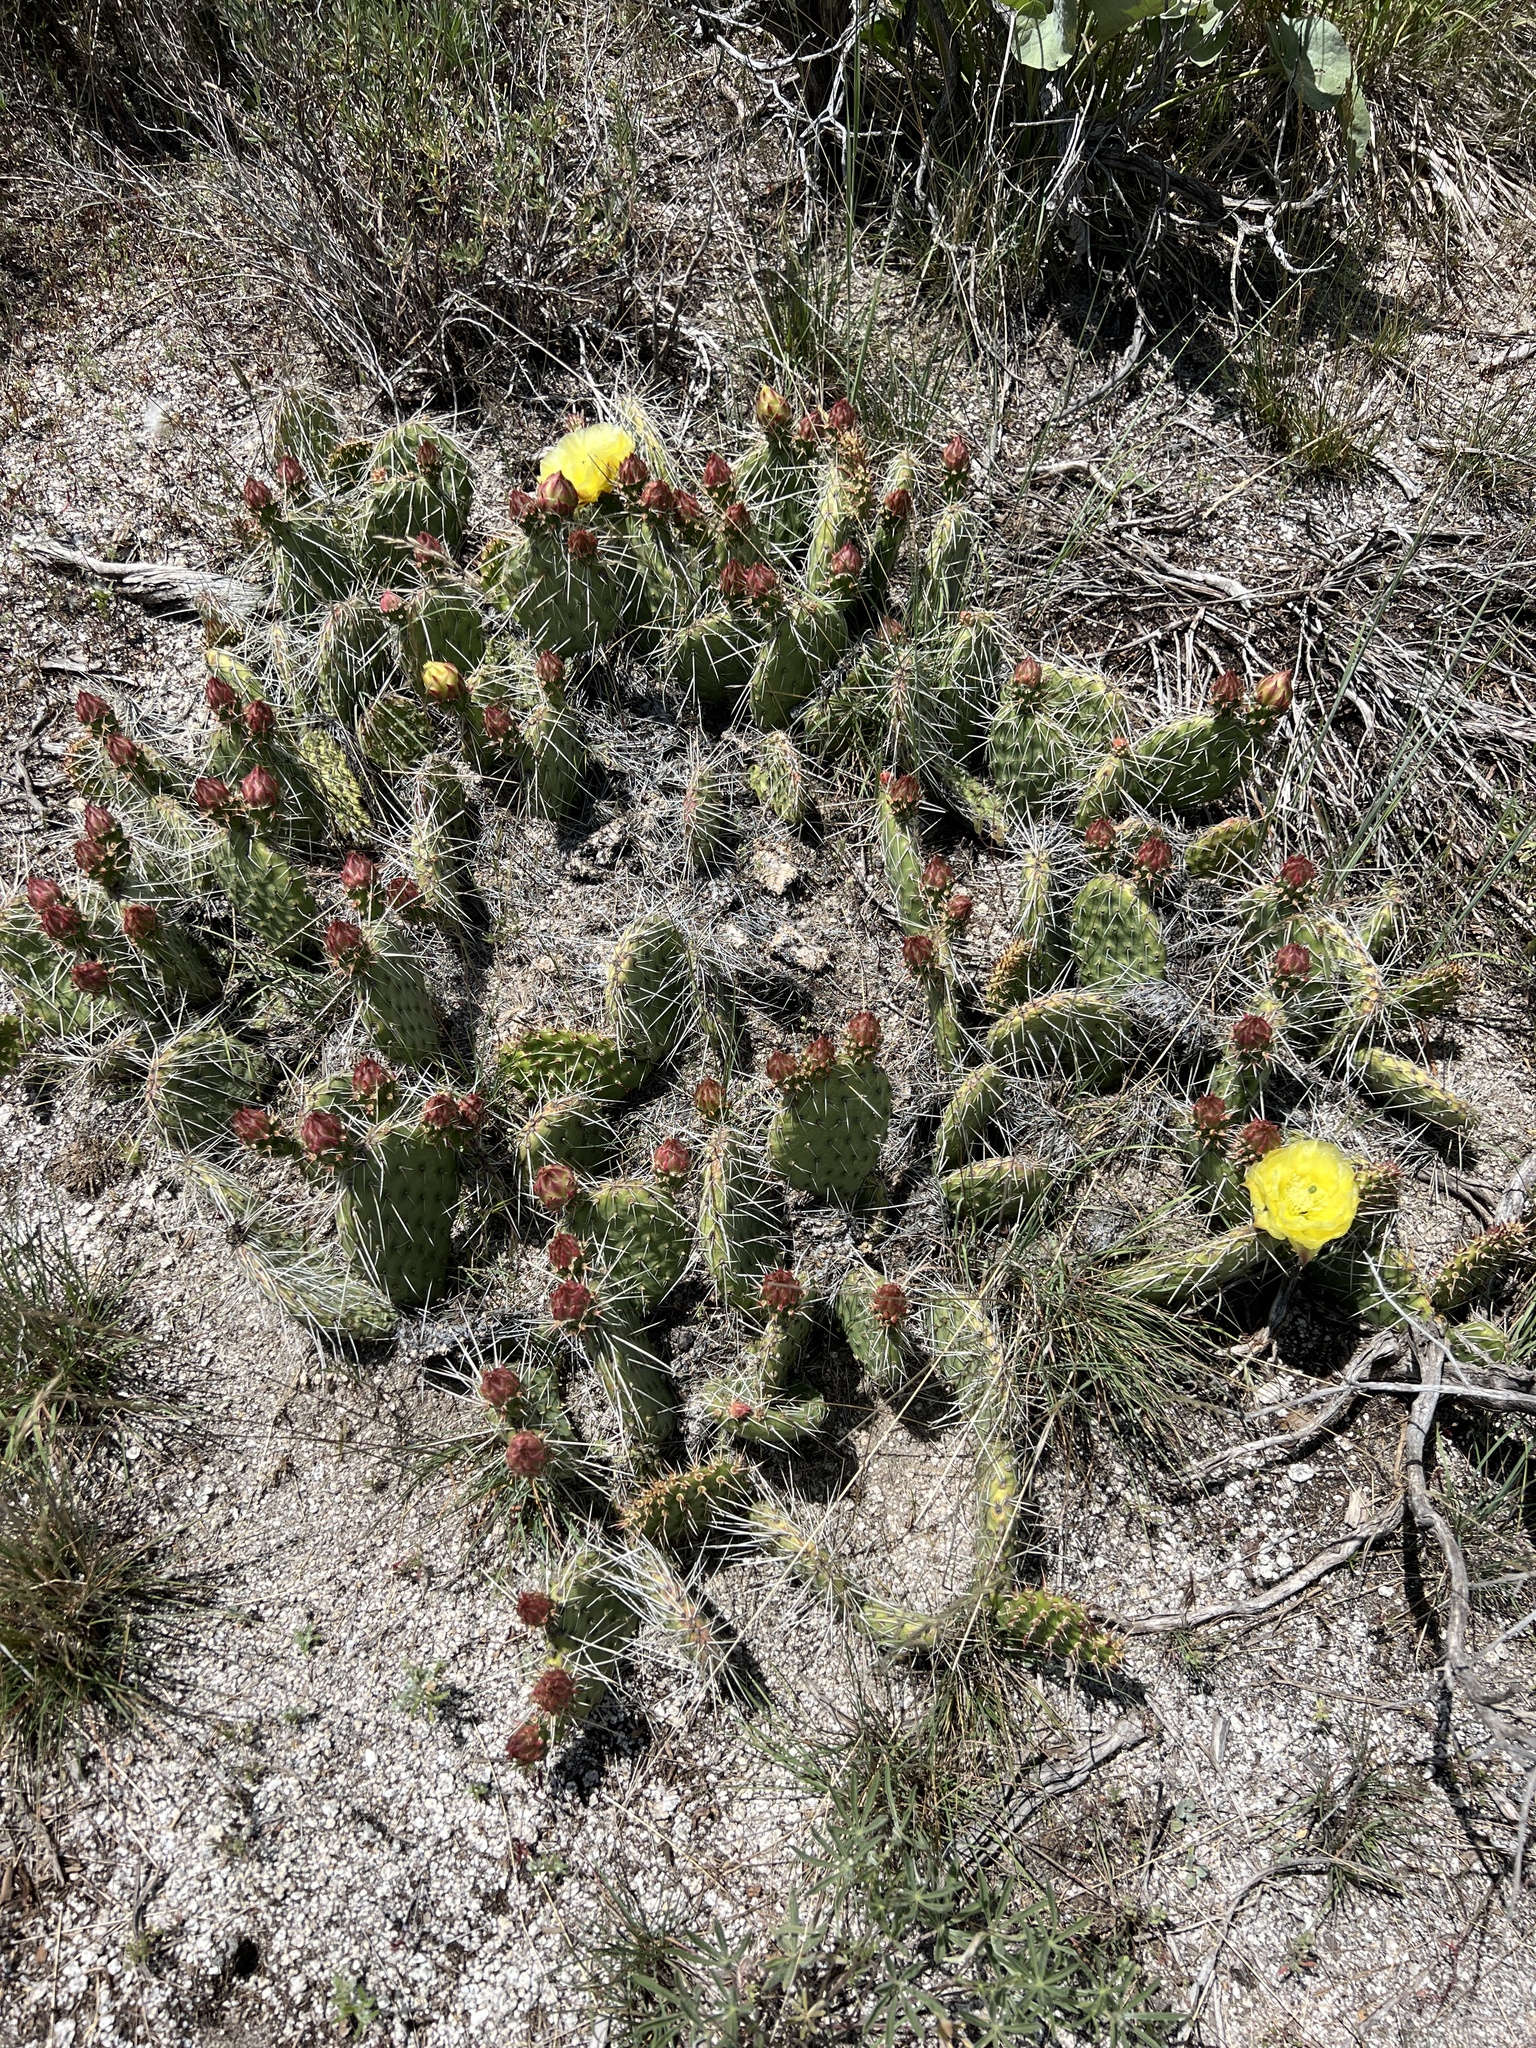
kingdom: Plantae
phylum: Tracheophyta
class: Magnoliopsida
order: Caryophyllales
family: Cactaceae
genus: Opuntia
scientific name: Opuntia polyacantha
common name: Plains prickly-pear
